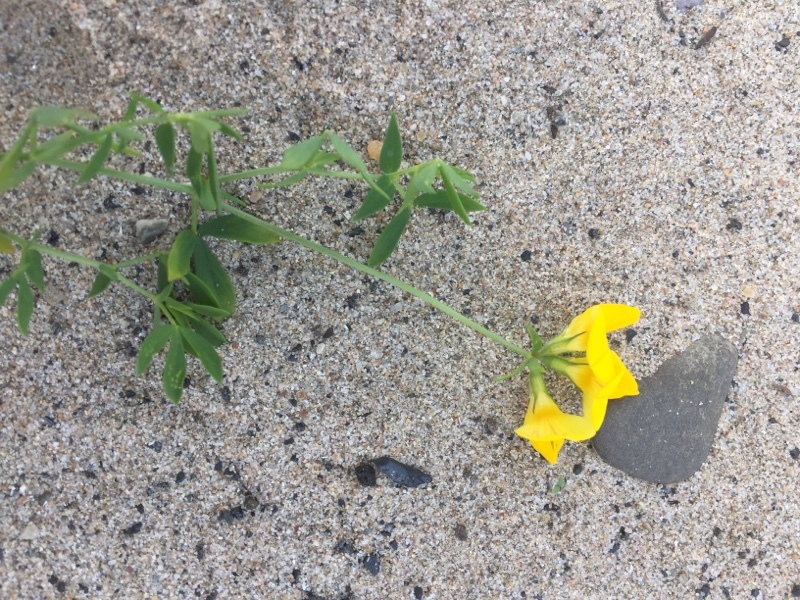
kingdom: Plantae
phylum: Tracheophyta
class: Magnoliopsida
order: Fabales
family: Fabaceae
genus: Lotus
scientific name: Lotus corniculatus
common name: Common bird's-foot-trefoil
